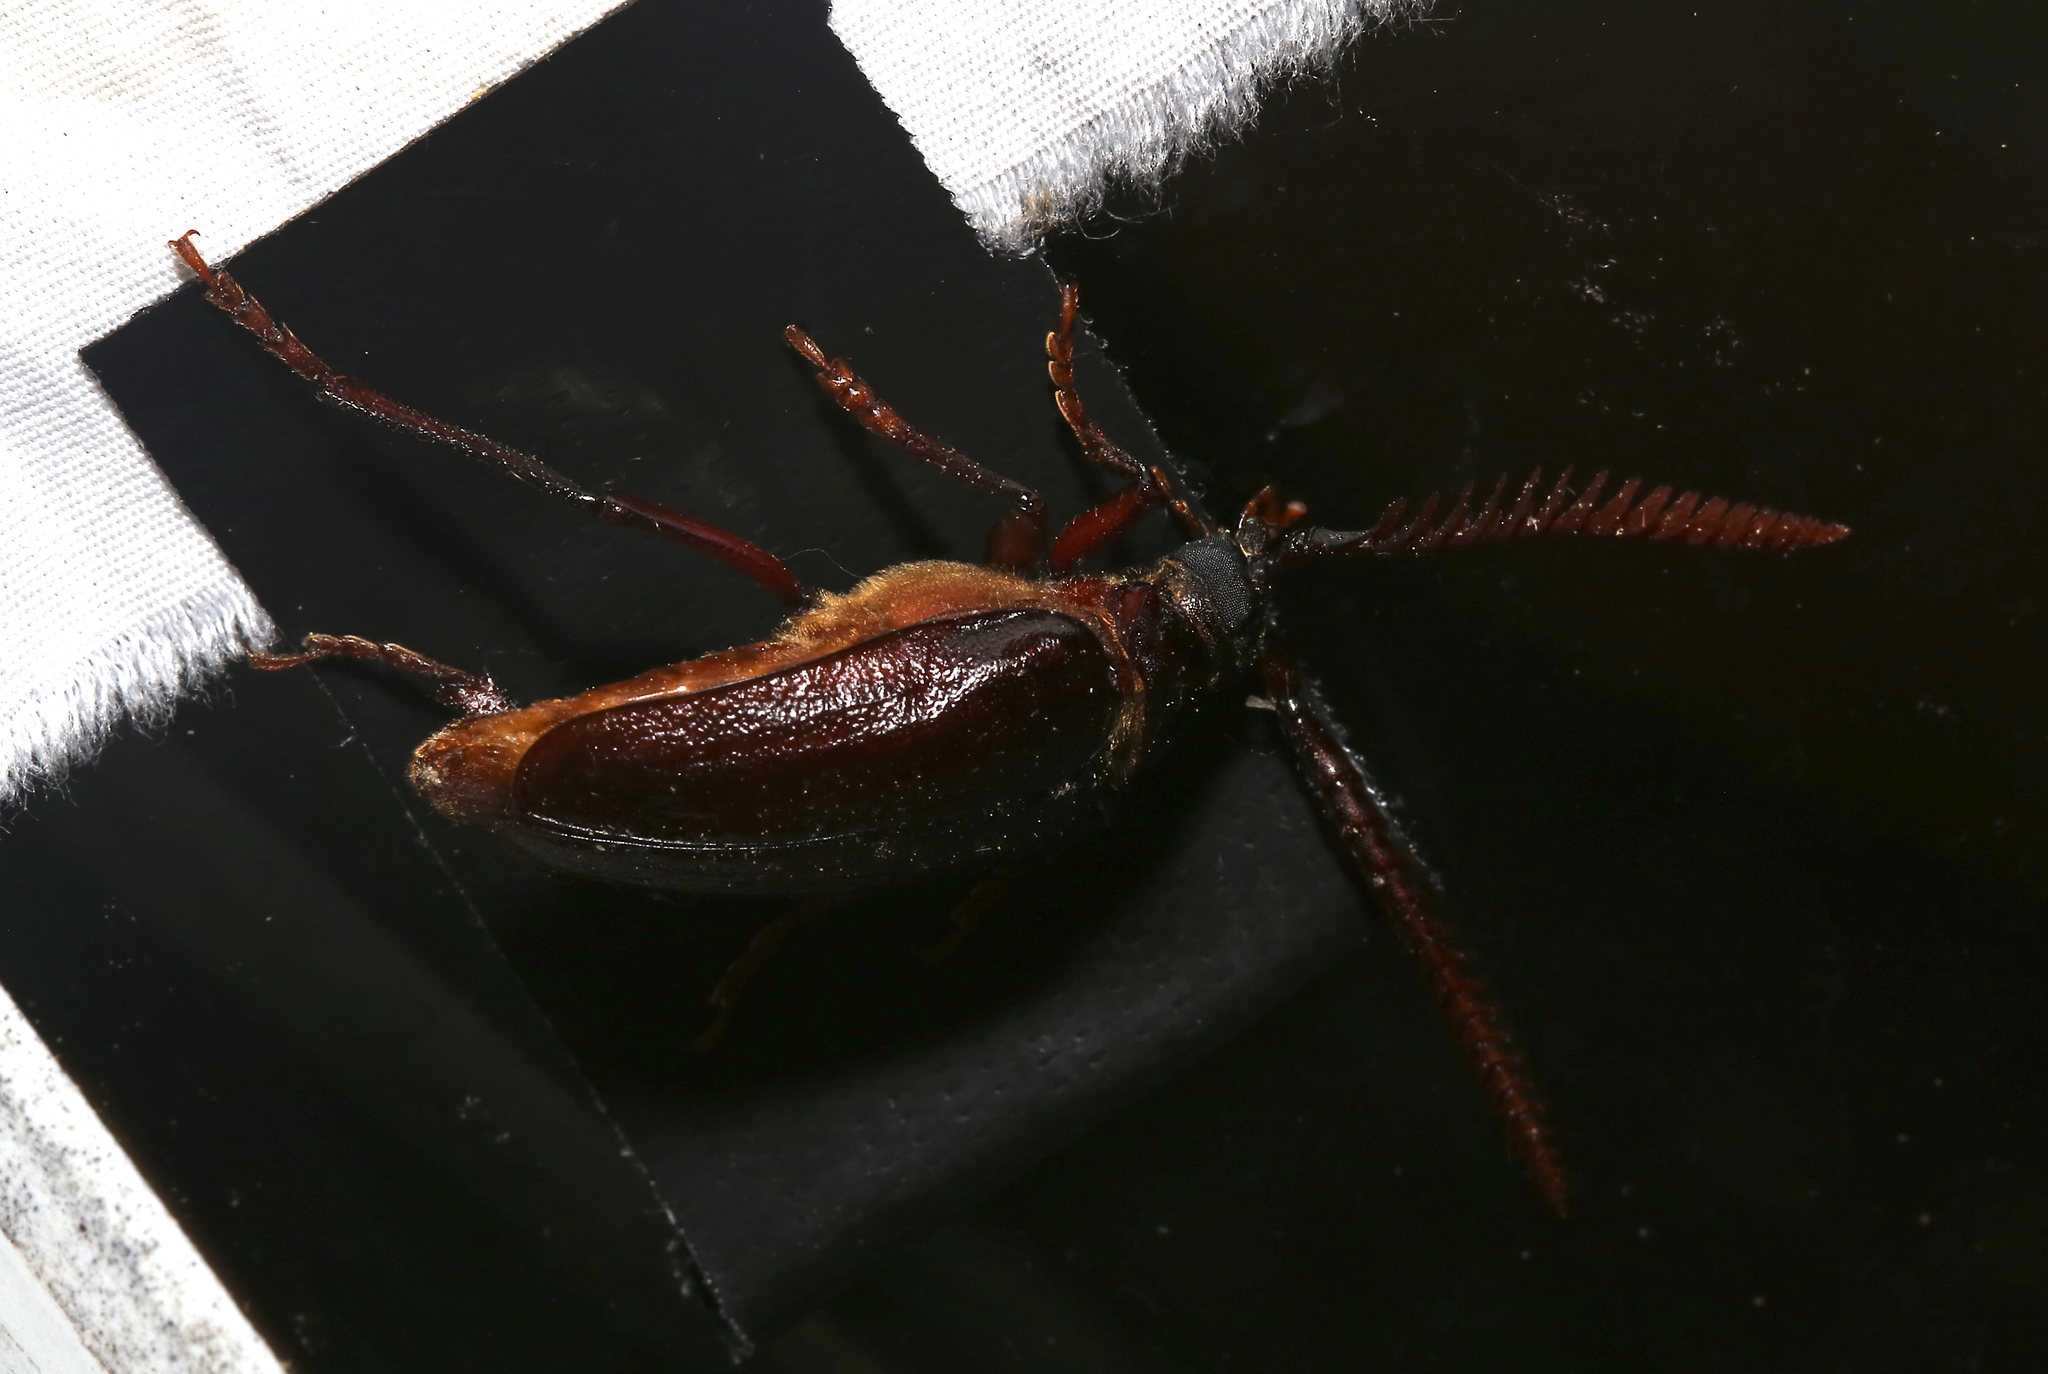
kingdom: Animalia
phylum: Arthropoda
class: Insecta
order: Coleoptera
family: Cerambycidae
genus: Prionus
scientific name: Prionus imbricornis
